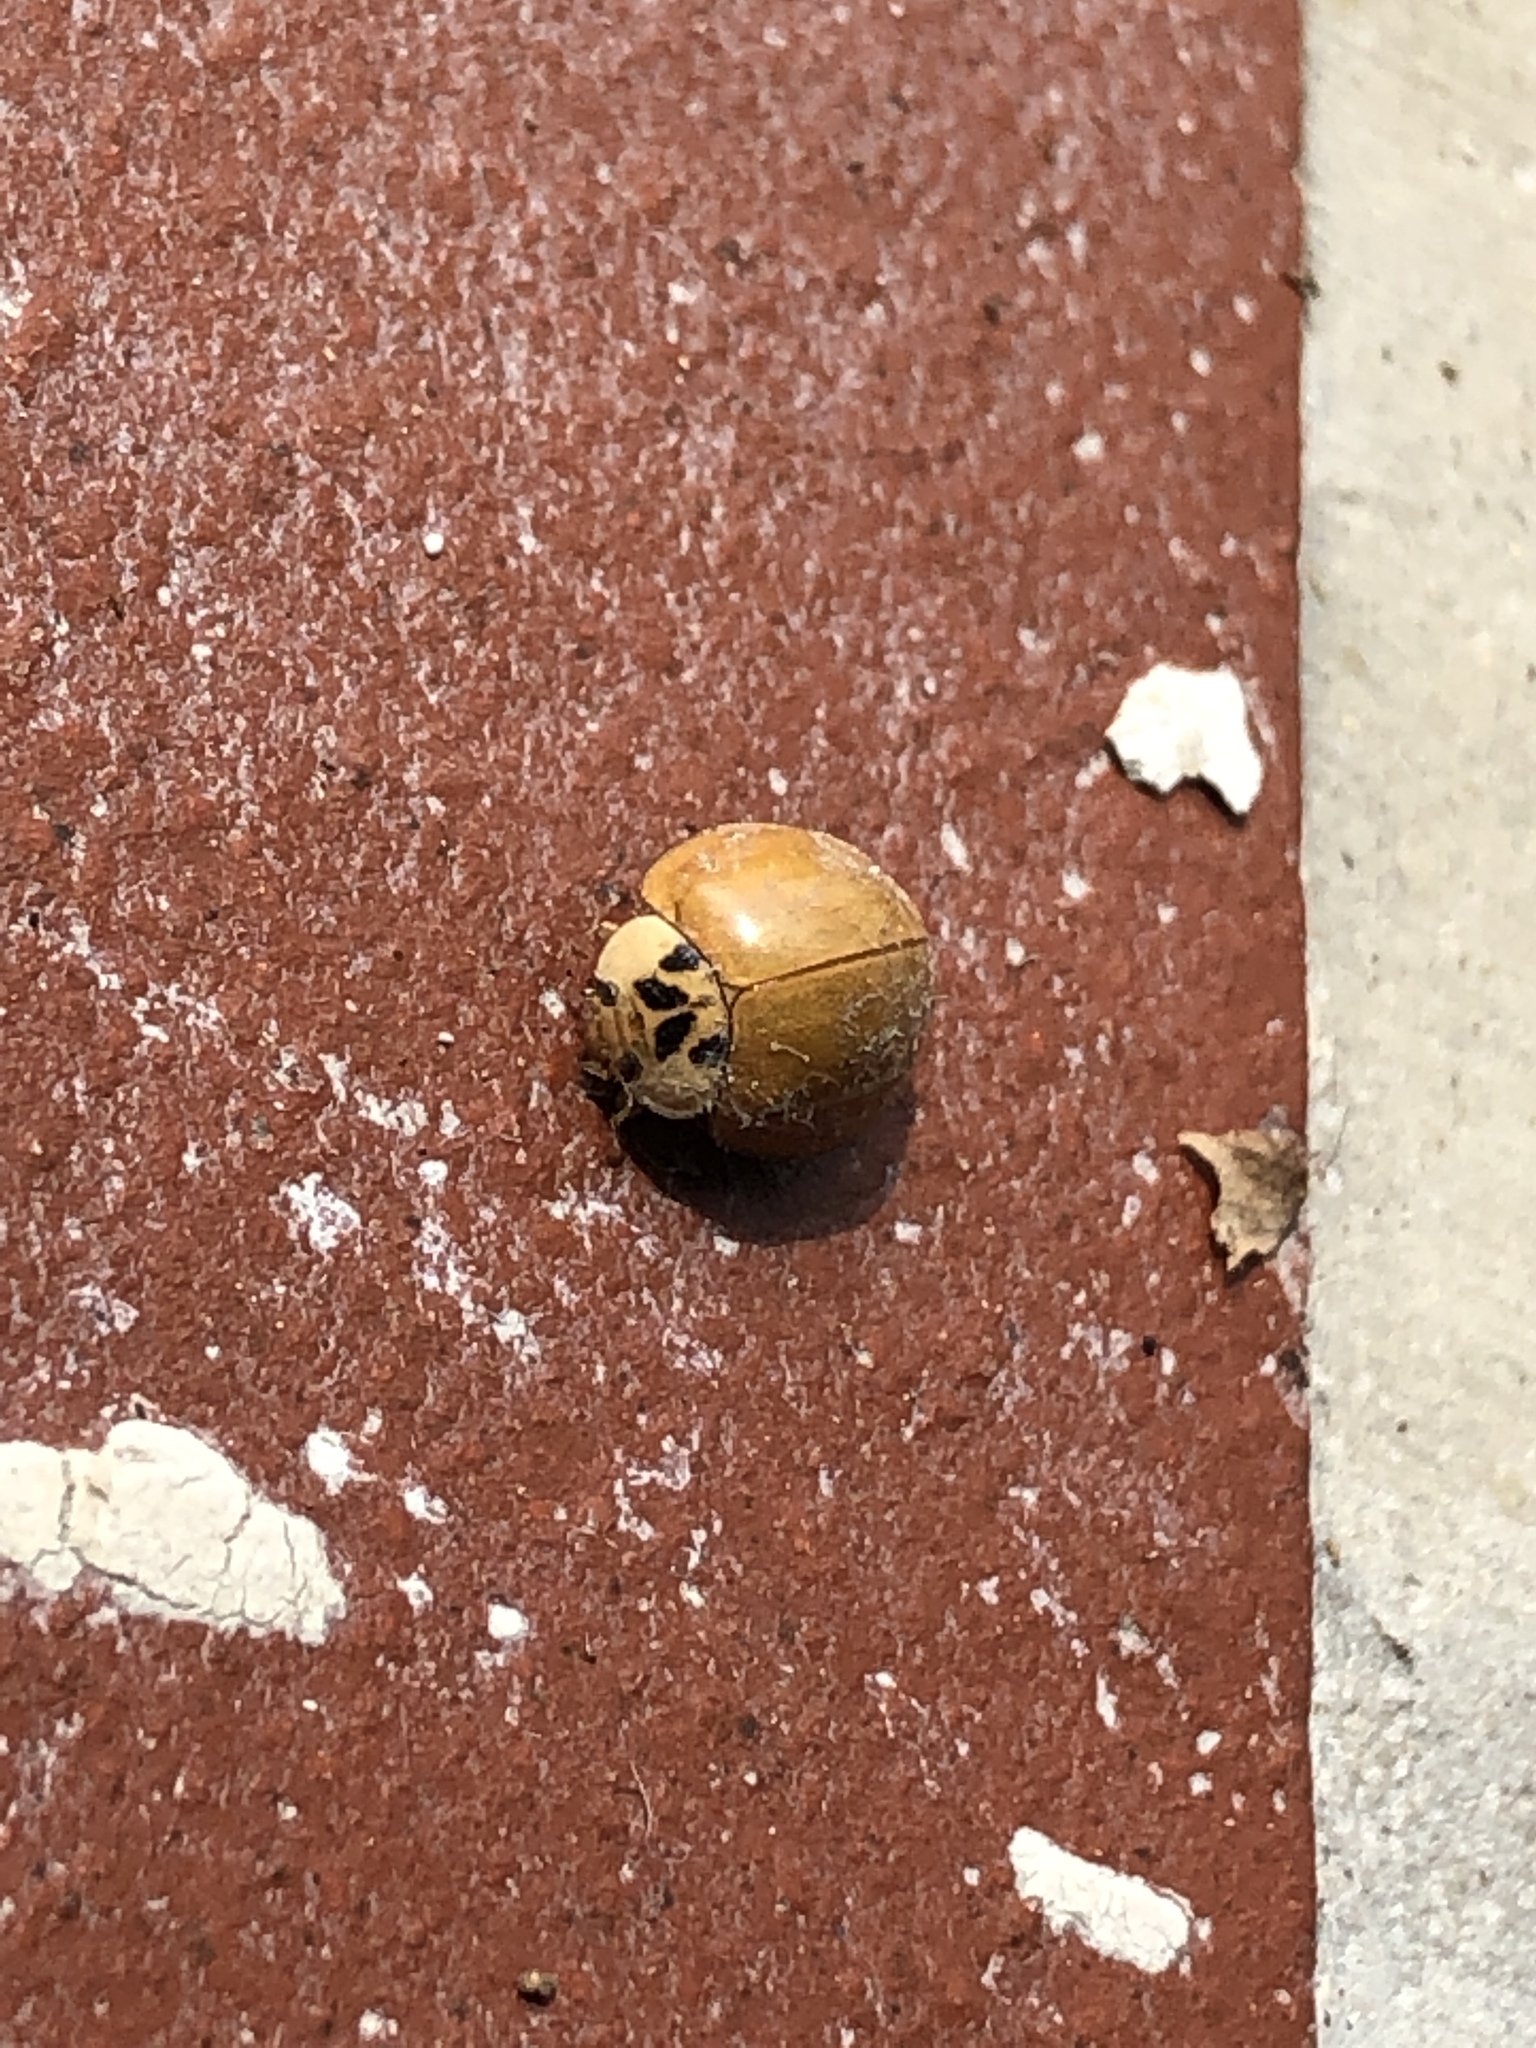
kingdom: Animalia
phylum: Arthropoda
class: Insecta
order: Coleoptera
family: Coccinellidae
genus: Harmonia
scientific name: Harmonia axyridis
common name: Harlequin ladybird
